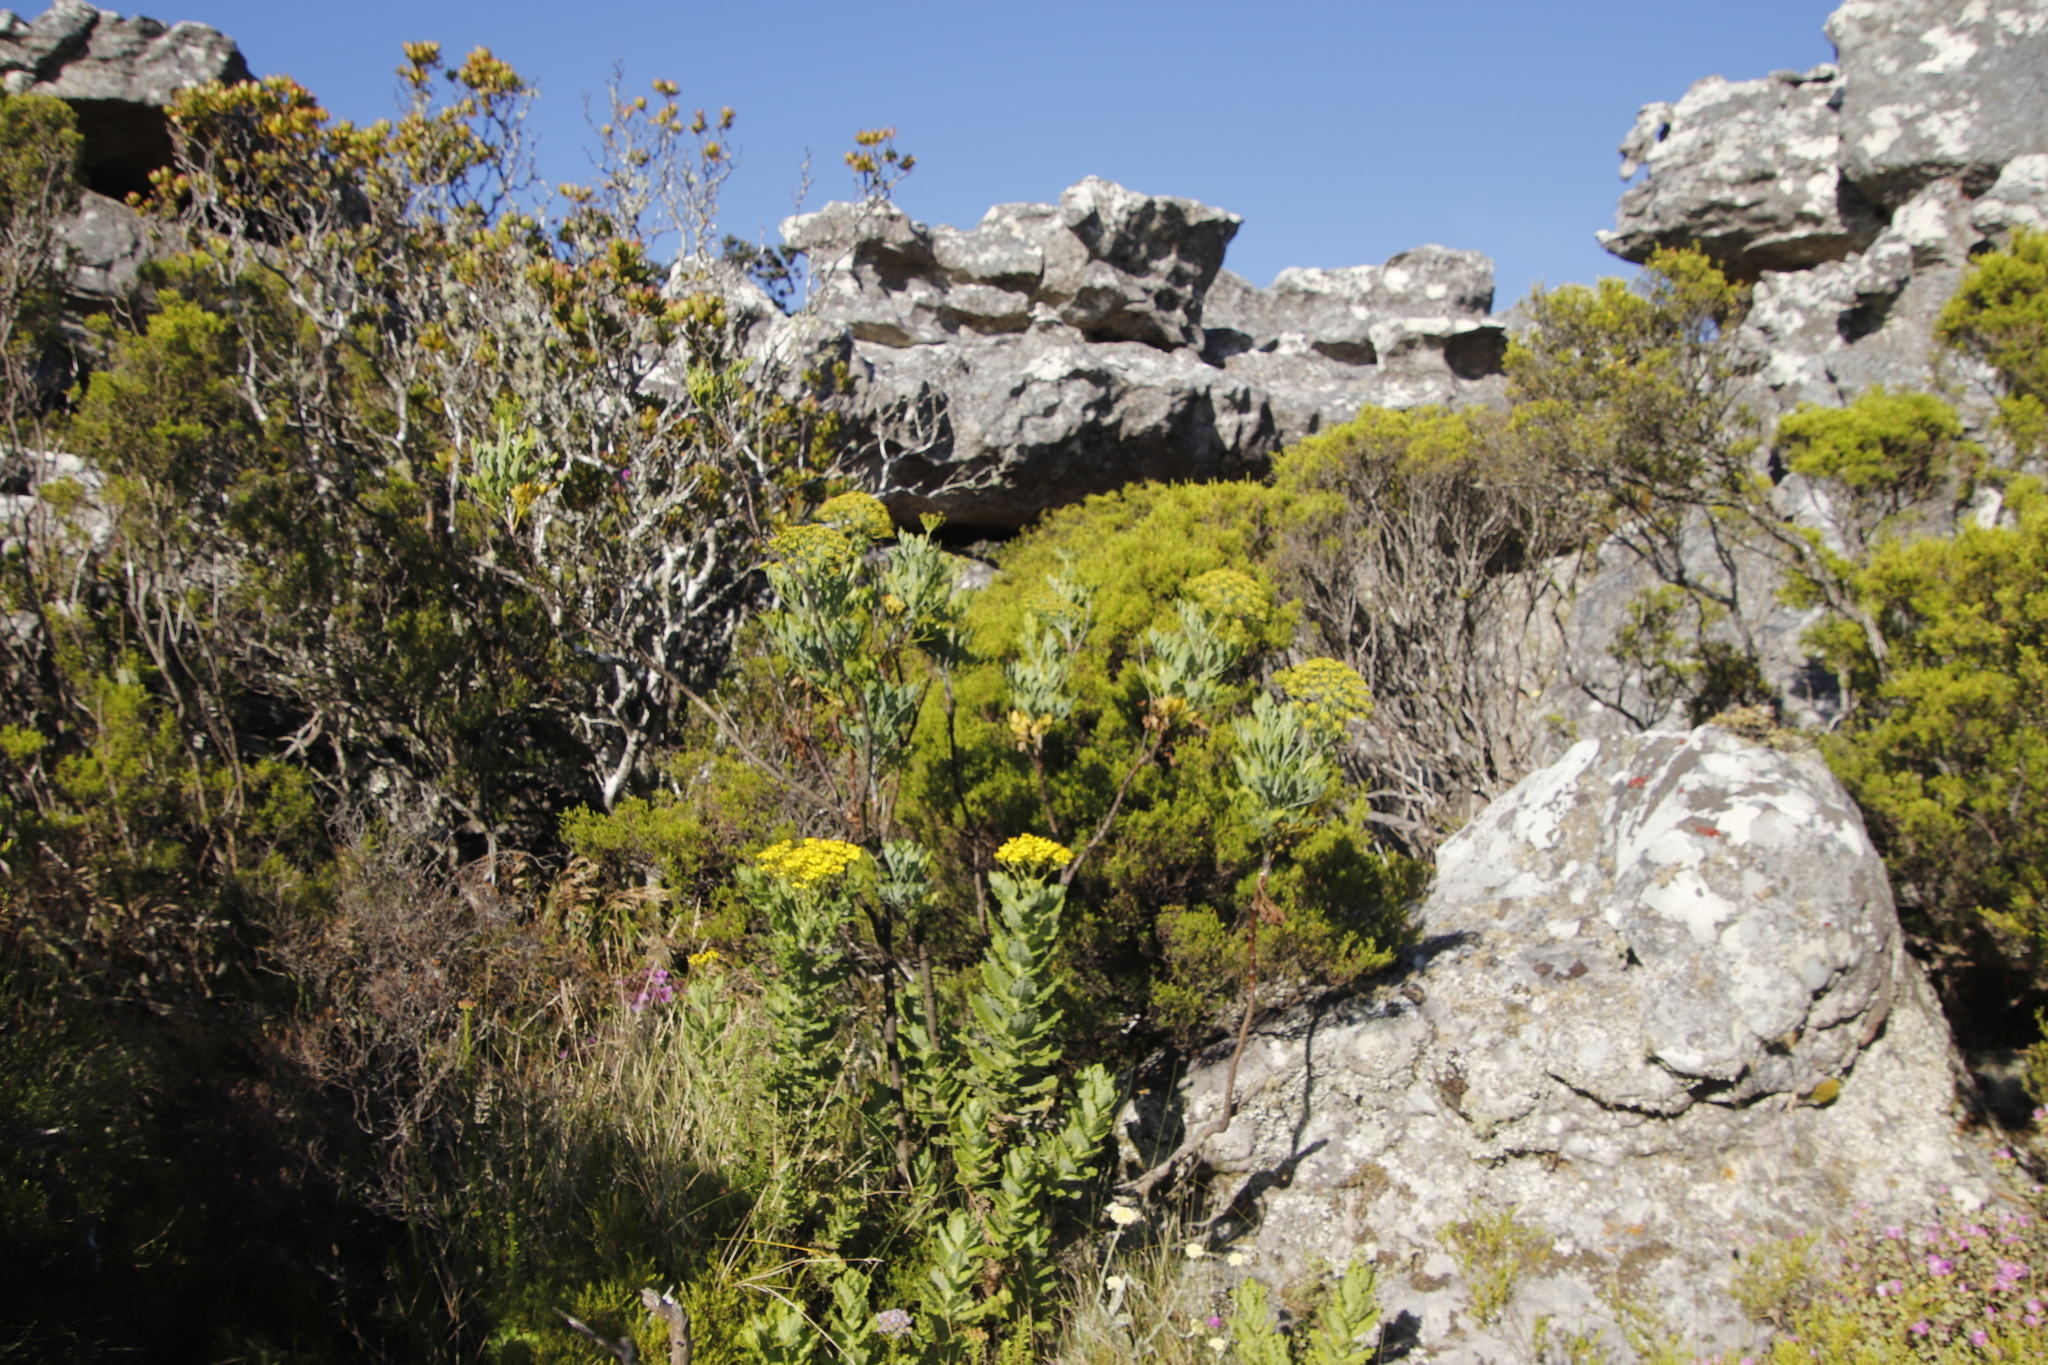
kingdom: Plantae
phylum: Tracheophyta
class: Magnoliopsida
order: Apiales
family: Apiaceae
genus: Notobubon
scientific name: Notobubon galbanum
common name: Blisterbush
